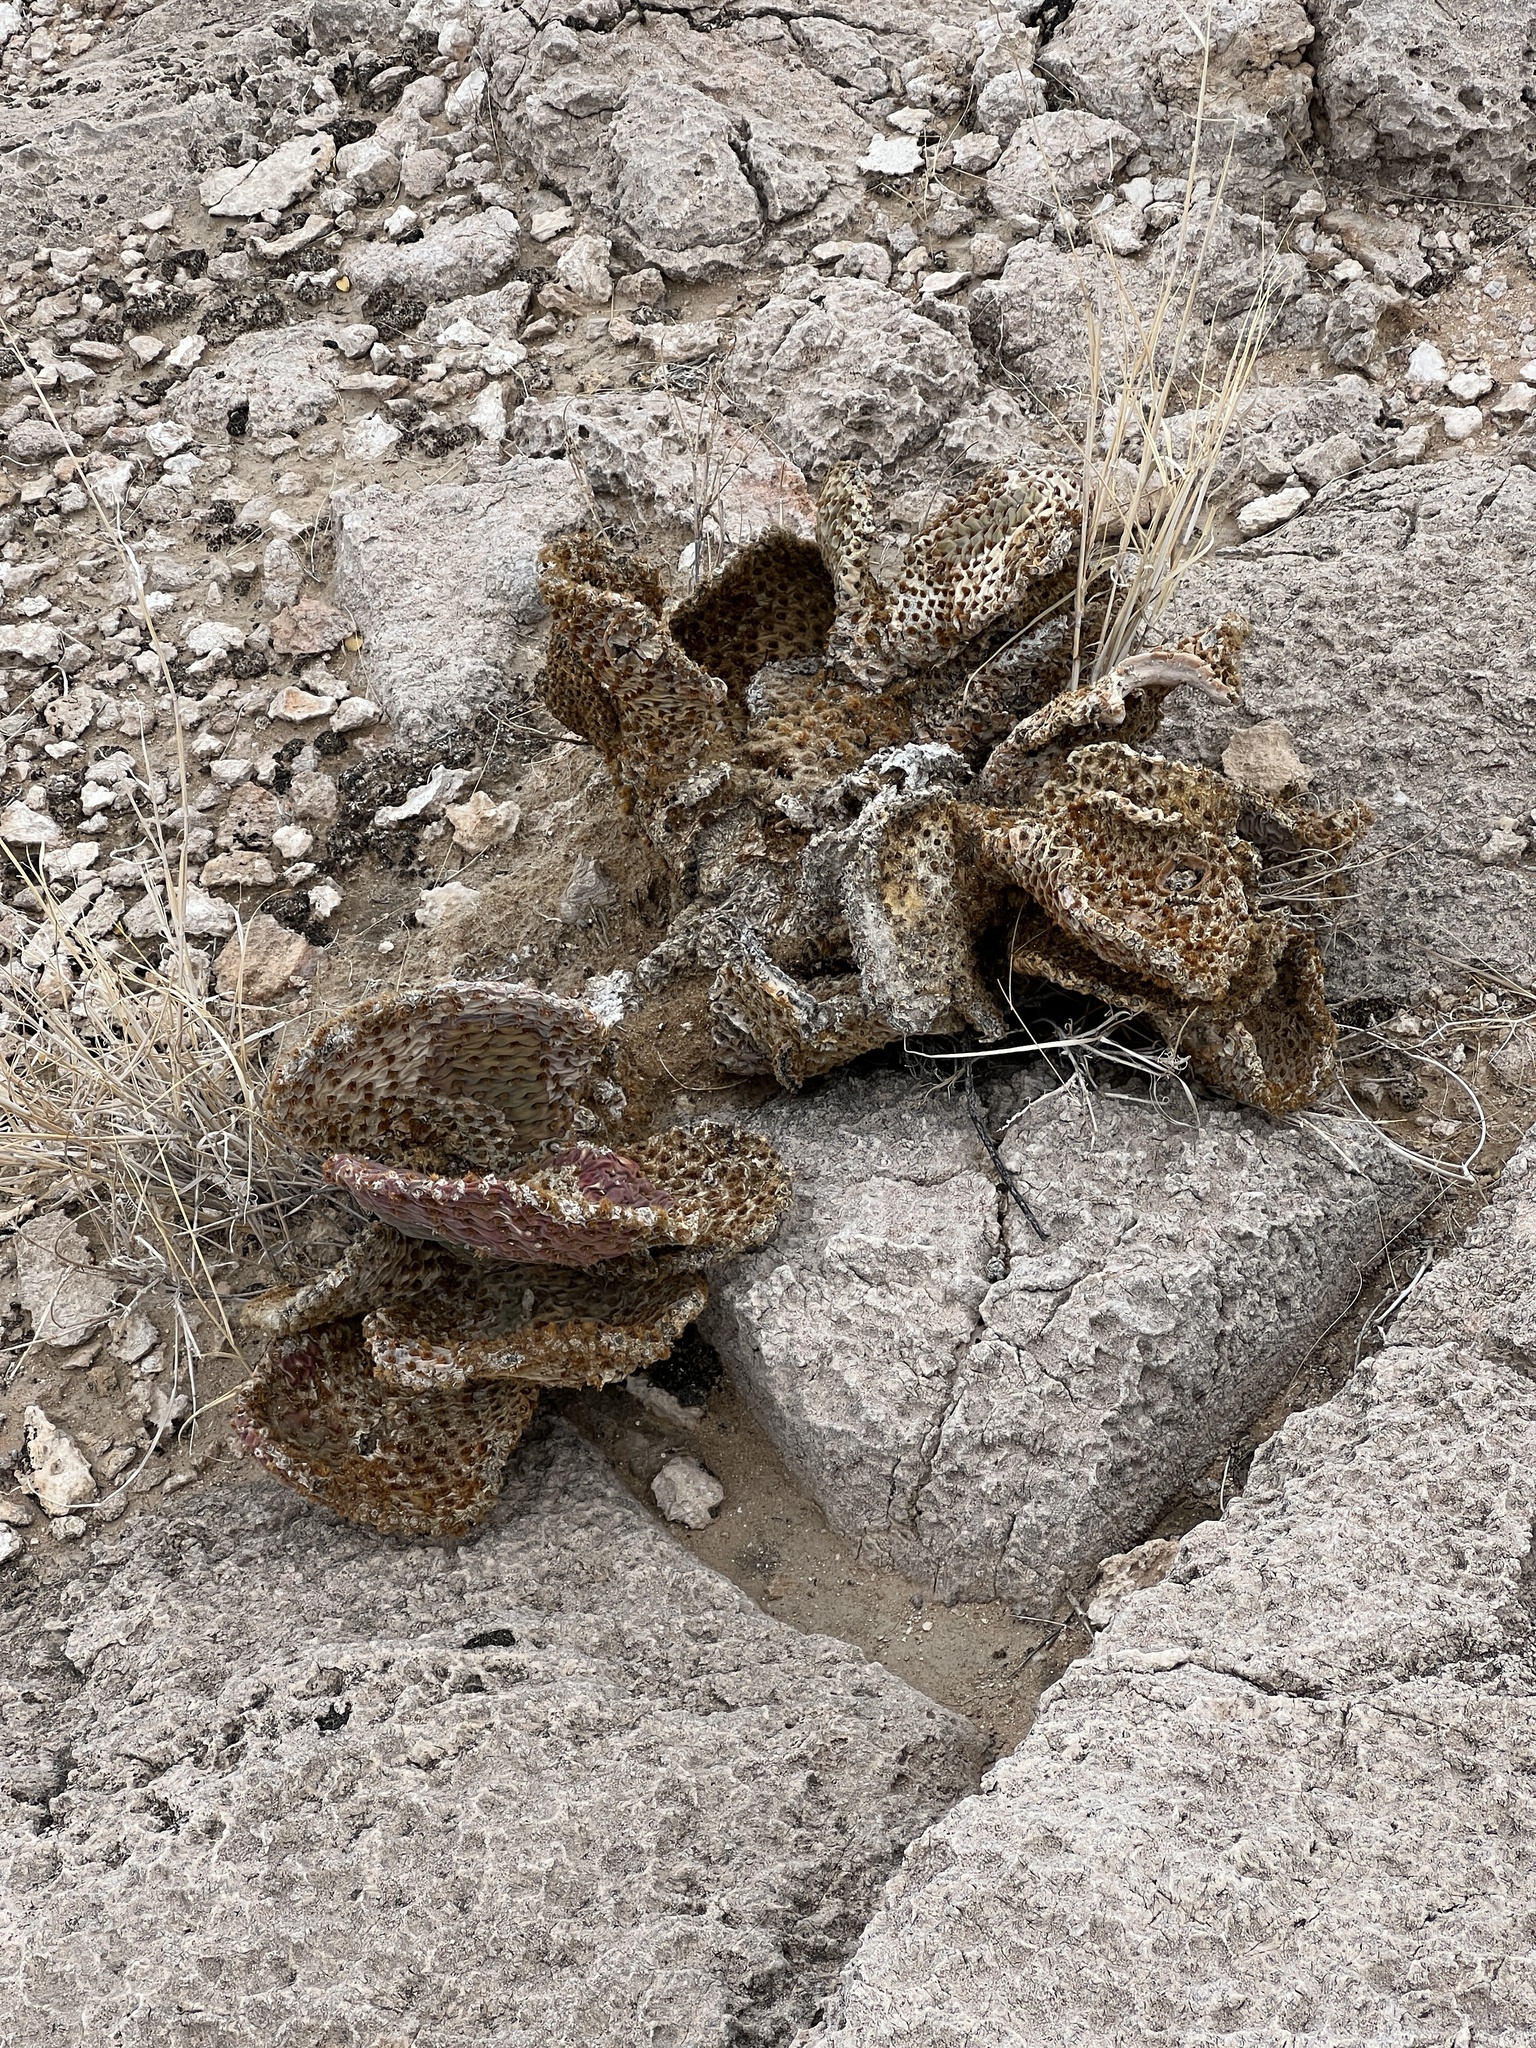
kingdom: Plantae
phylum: Tracheophyta
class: Magnoliopsida
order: Caryophyllales
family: Cactaceae
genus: Opuntia
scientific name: Opuntia basilaris
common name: Beavertail prickly-pear
